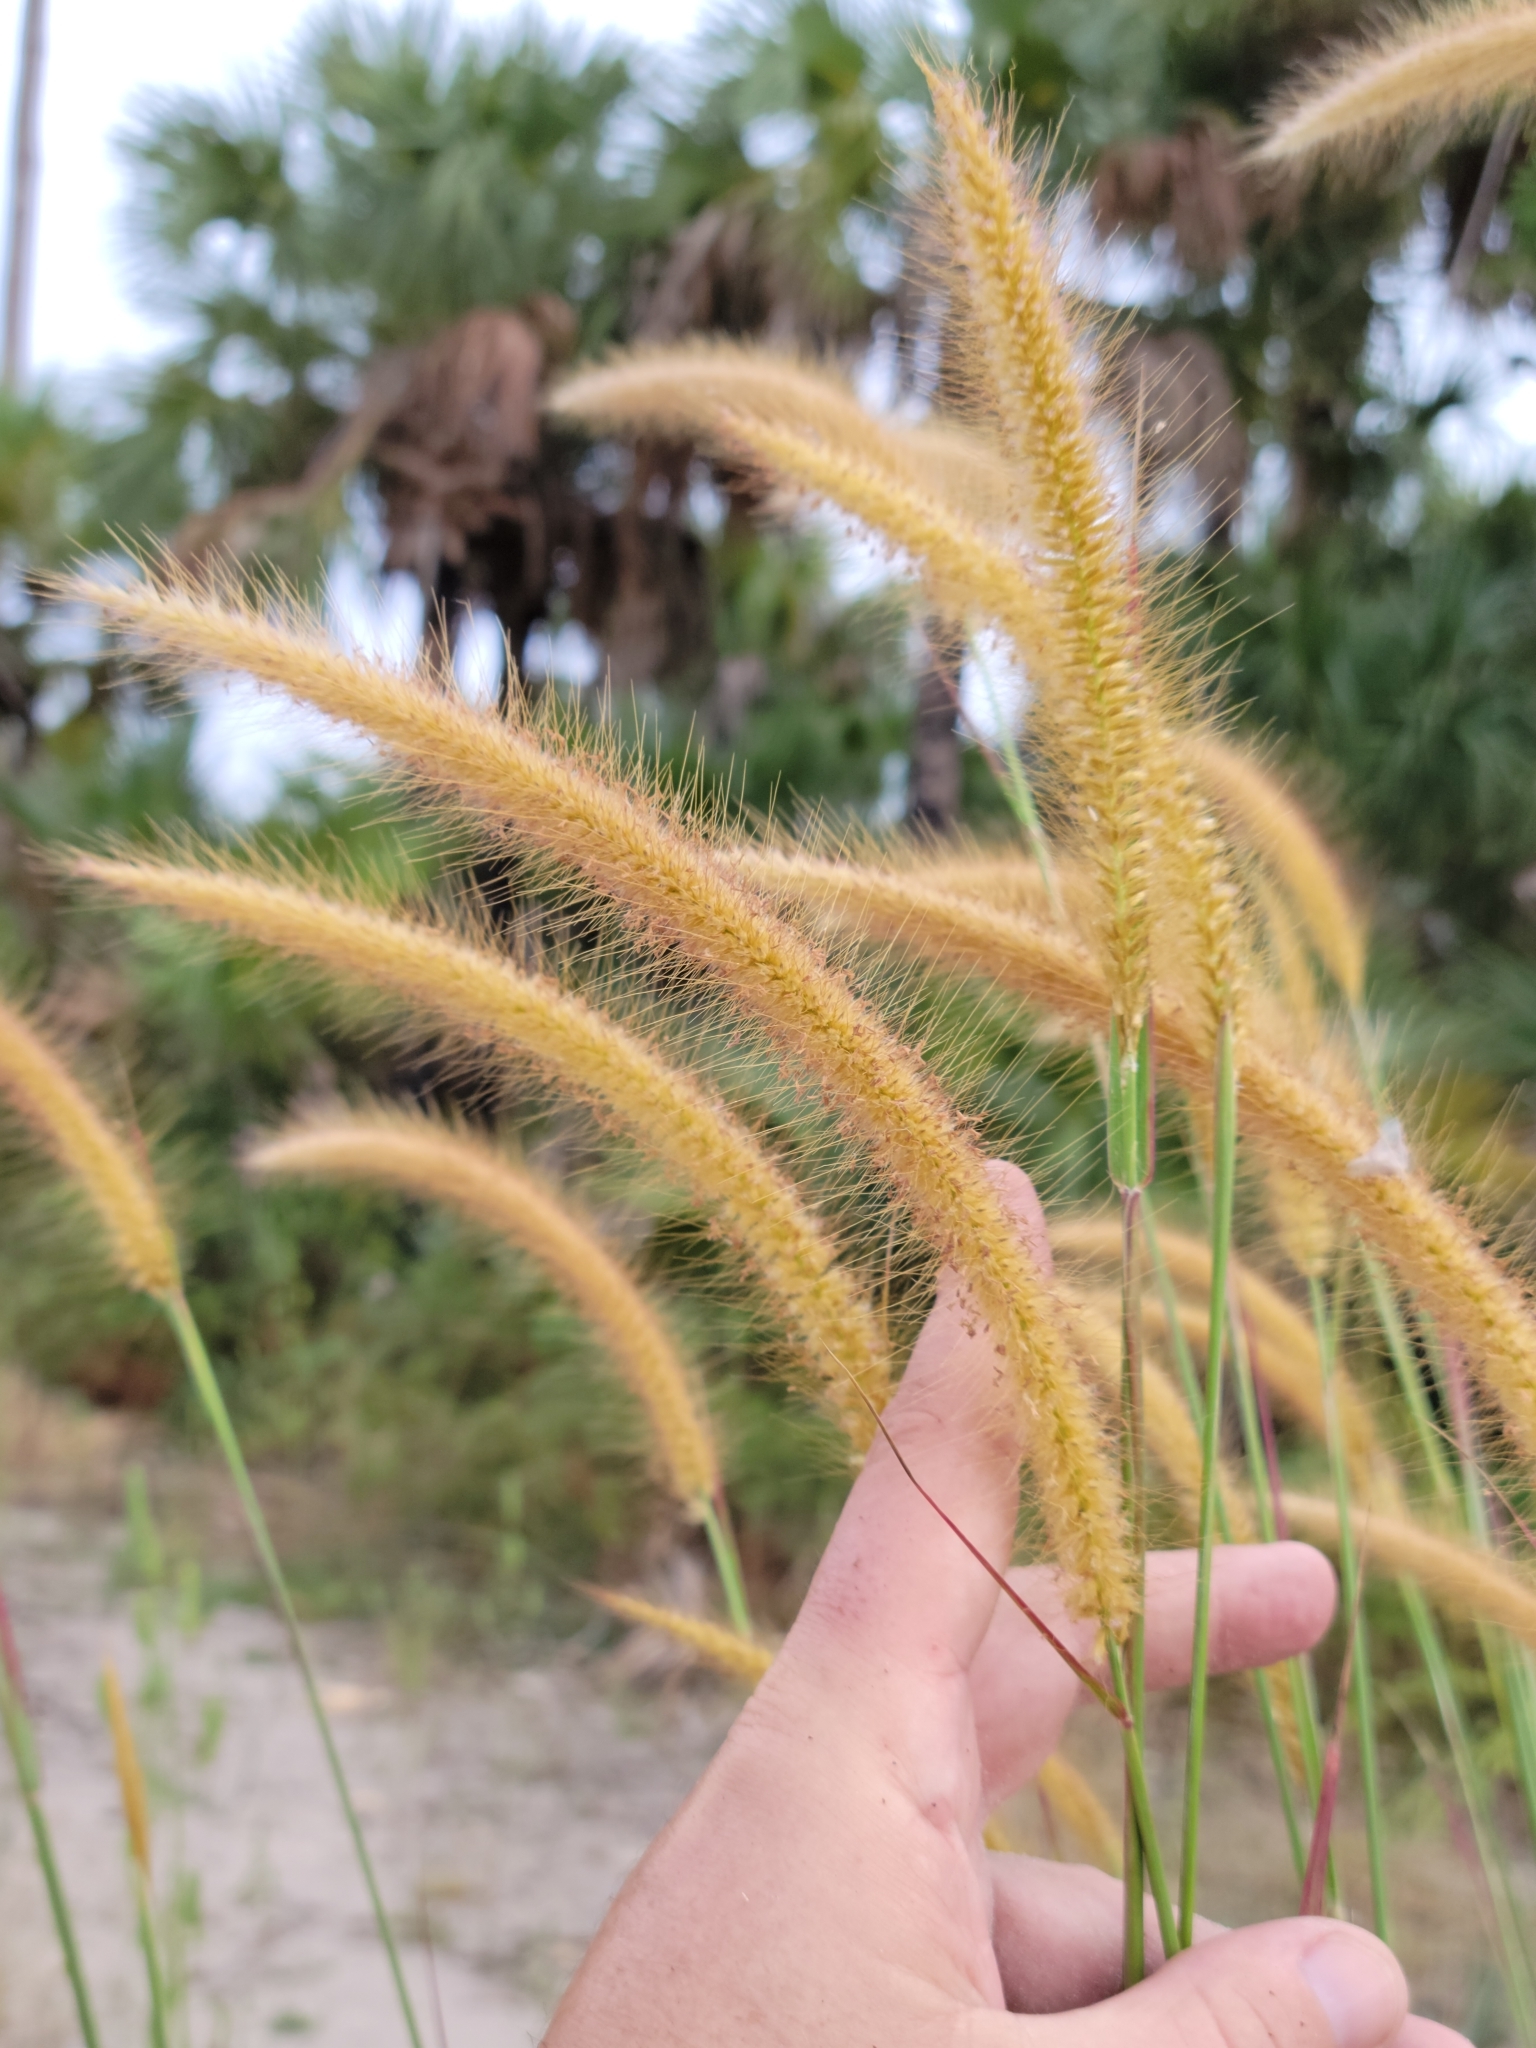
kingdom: Plantae
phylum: Tracheophyta
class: Liliopsida
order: Poales
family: Poaceae
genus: Cenchrus
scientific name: Cenchrus purpureus
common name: Elephant grass
